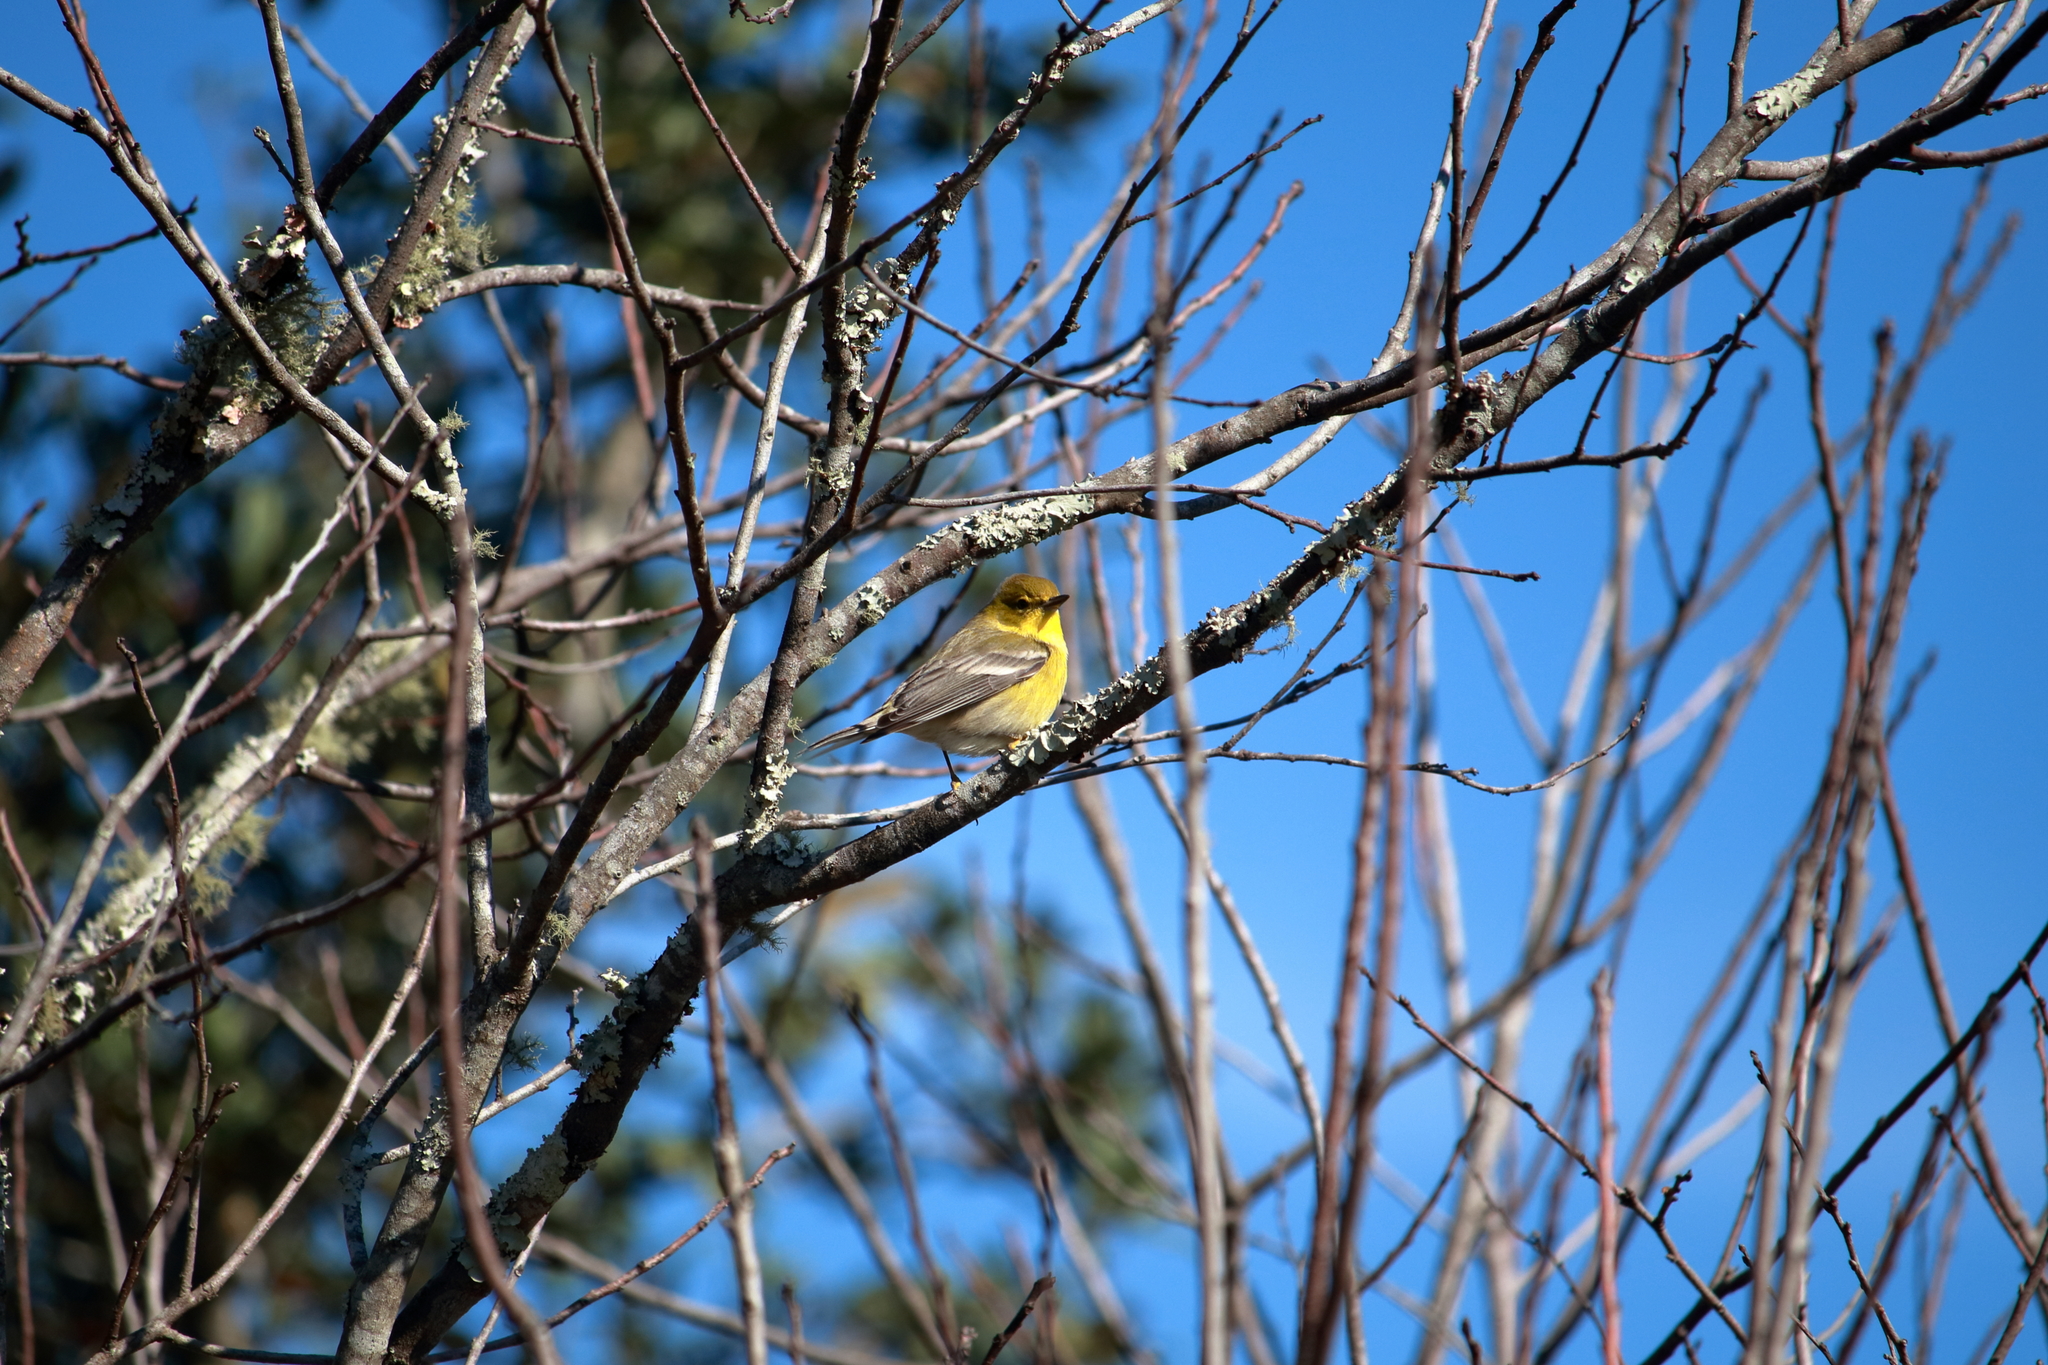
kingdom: Animalia
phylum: Chordata
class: Aves
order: Passeriformes
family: Parulidae
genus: Setophaga
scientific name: Setophaga pinus
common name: Pine warbler
